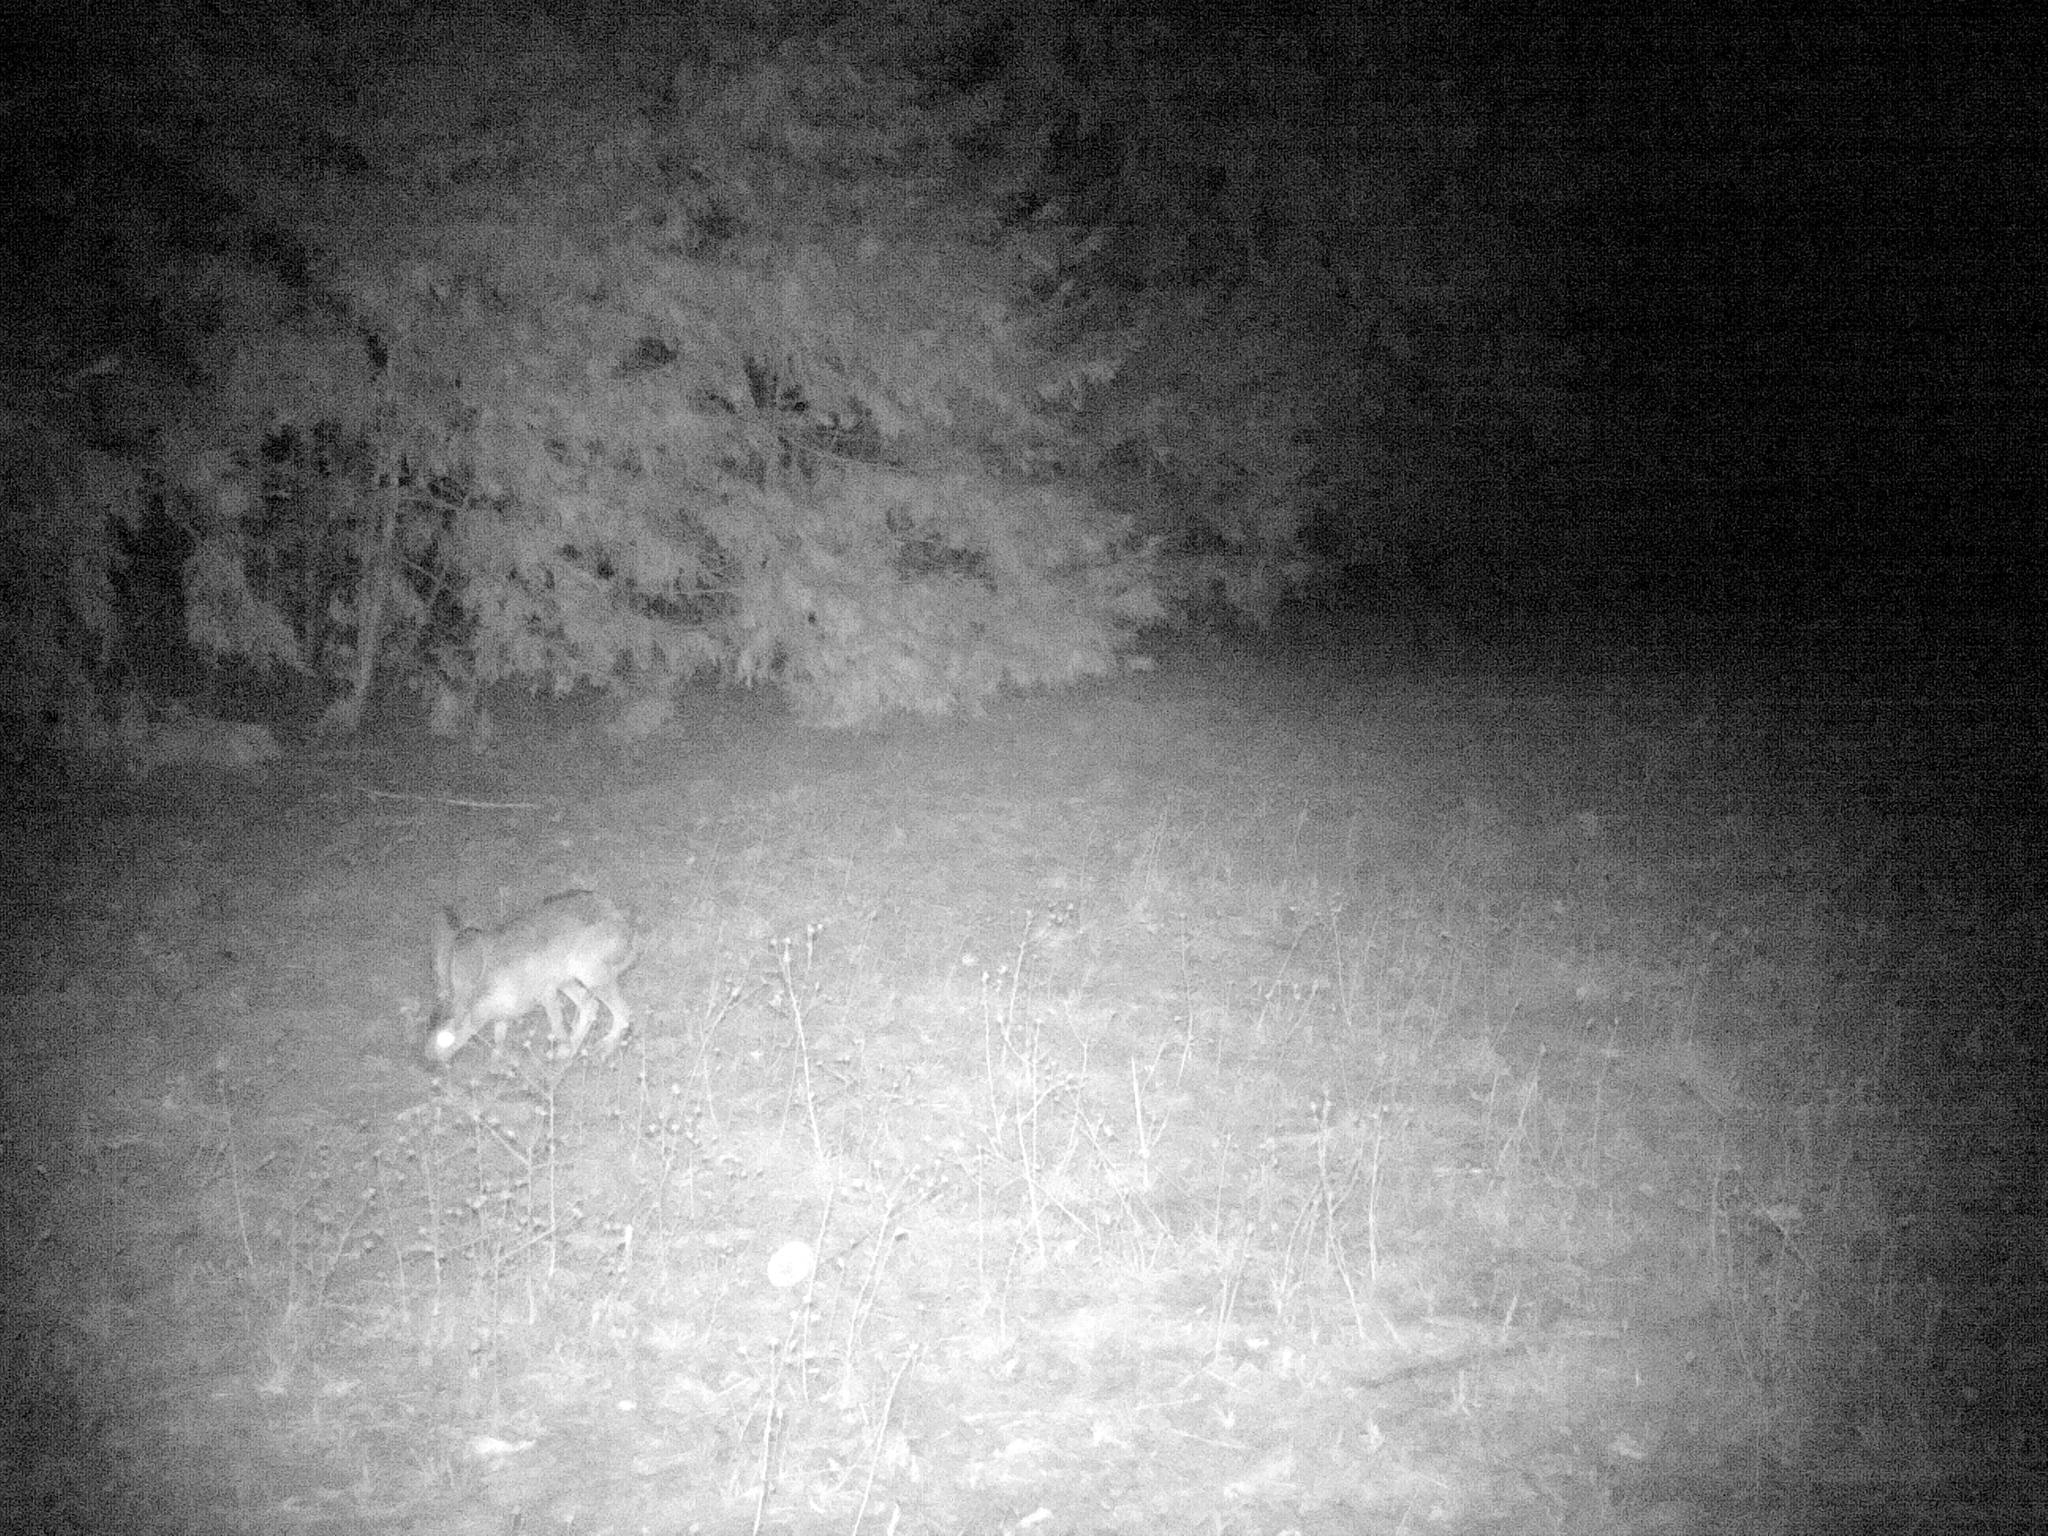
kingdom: Animalia
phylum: Chordata
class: Mammalia
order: Lagomorpha
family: Leporidae
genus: Lepus
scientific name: Lepus californicus
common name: Black-tailed jackrabbit
